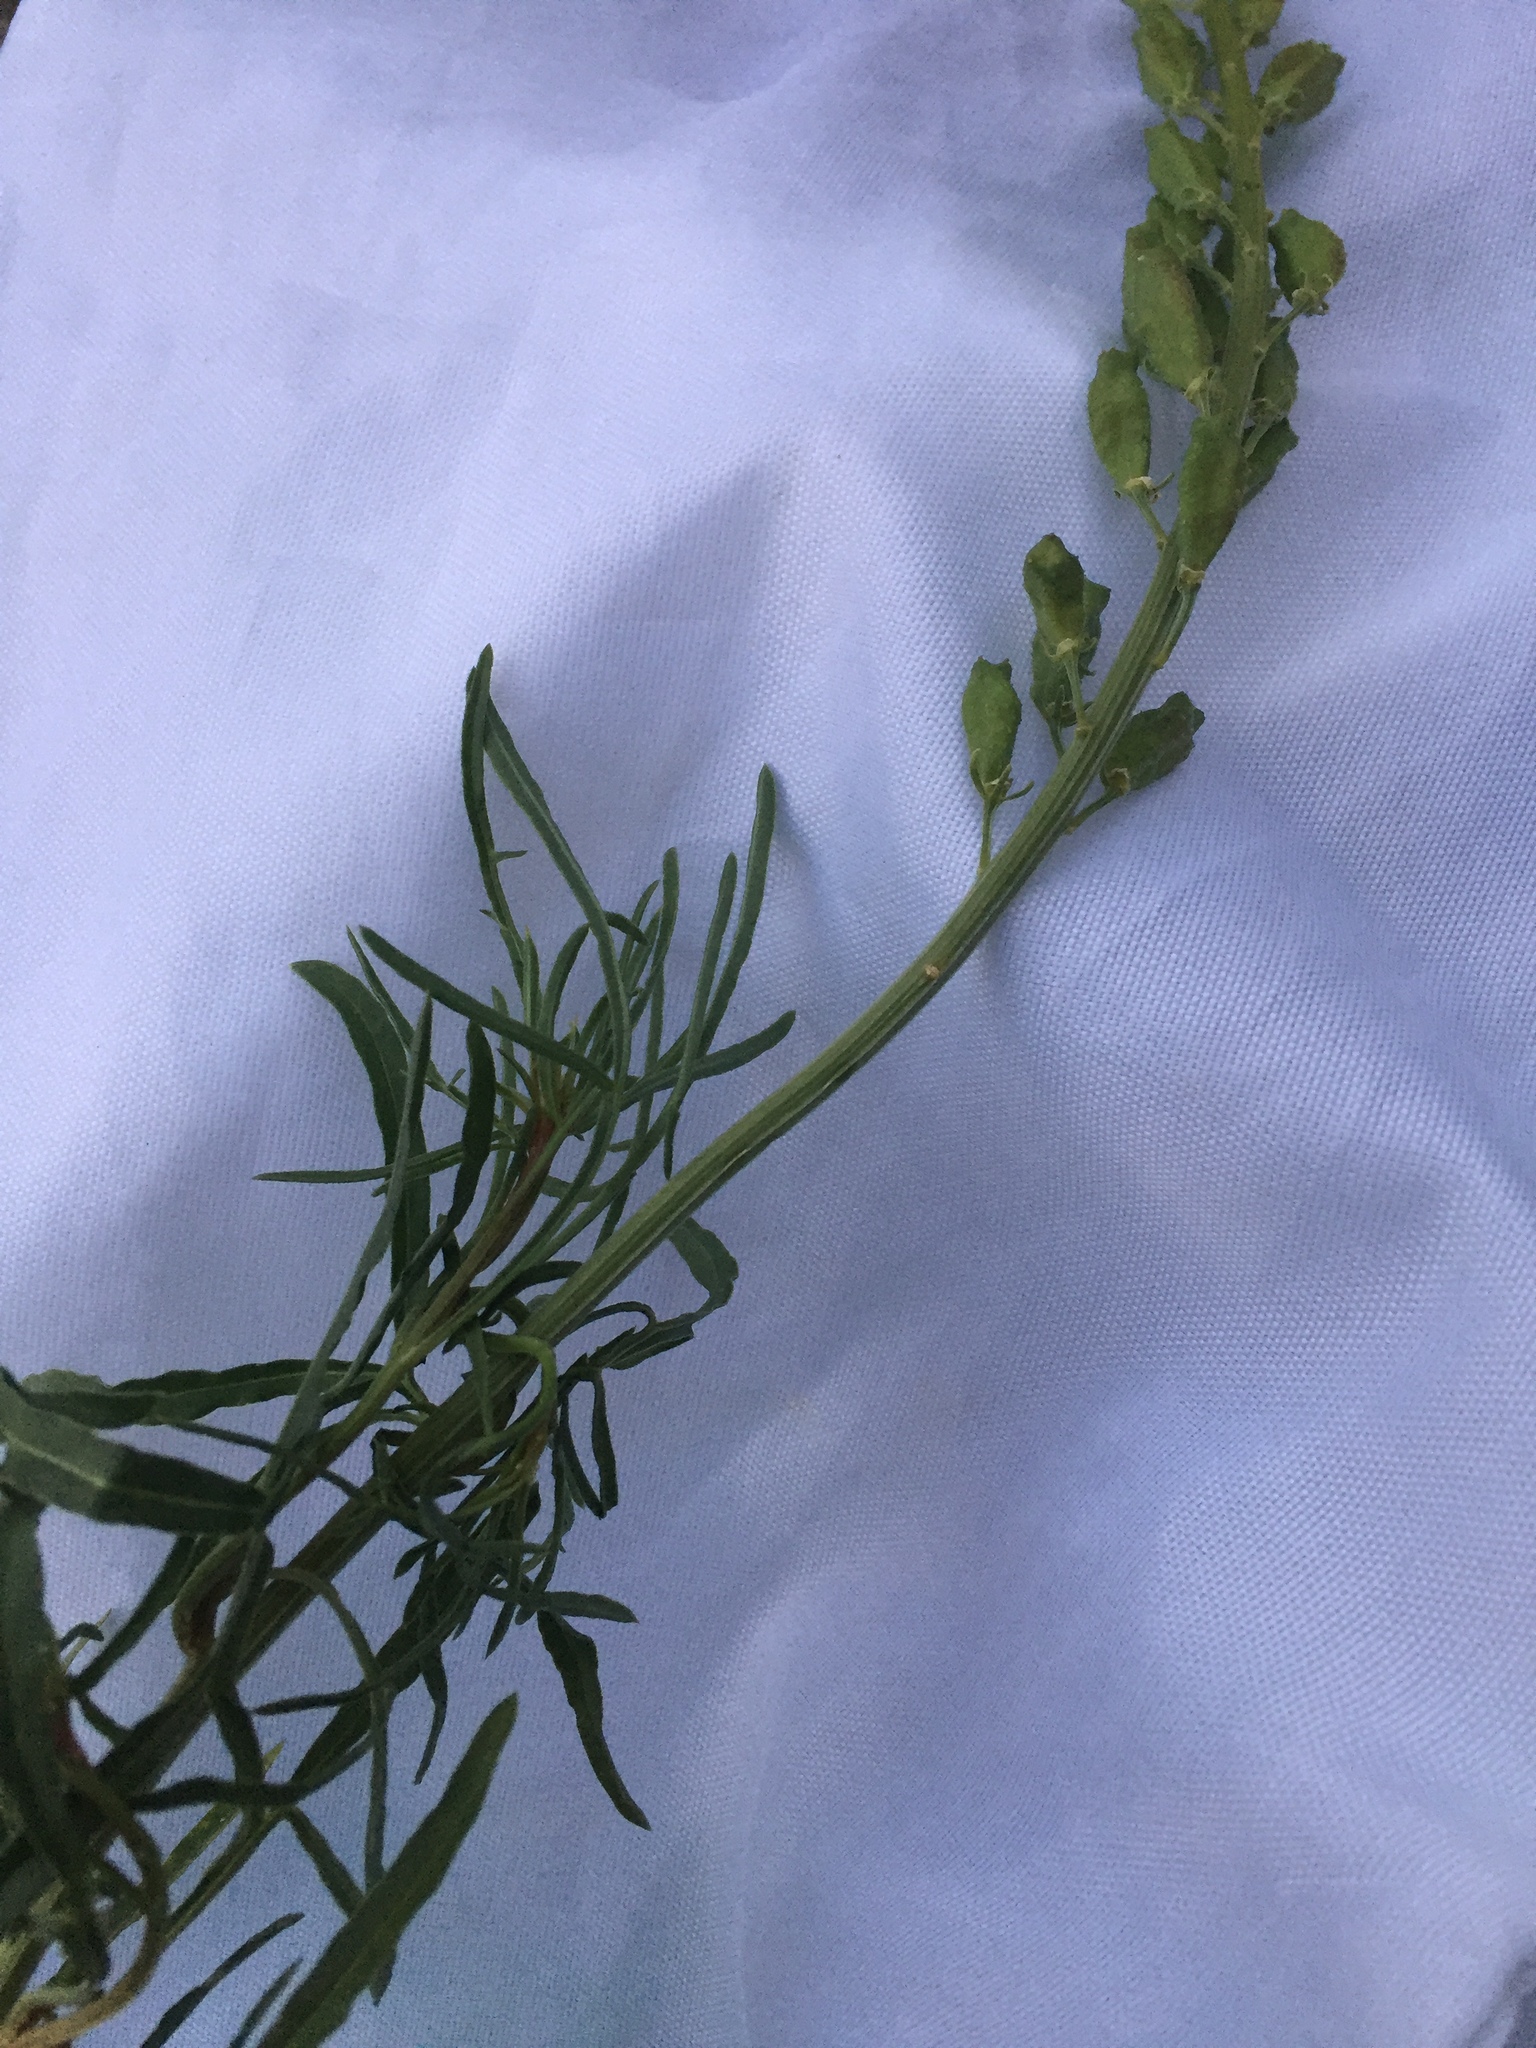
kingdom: Plantae
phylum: Tracheophyta
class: Magnoliopsida
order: Brassicales
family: Resedaceae
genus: Reseda
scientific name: Reseda lutea
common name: Wild mignonette
